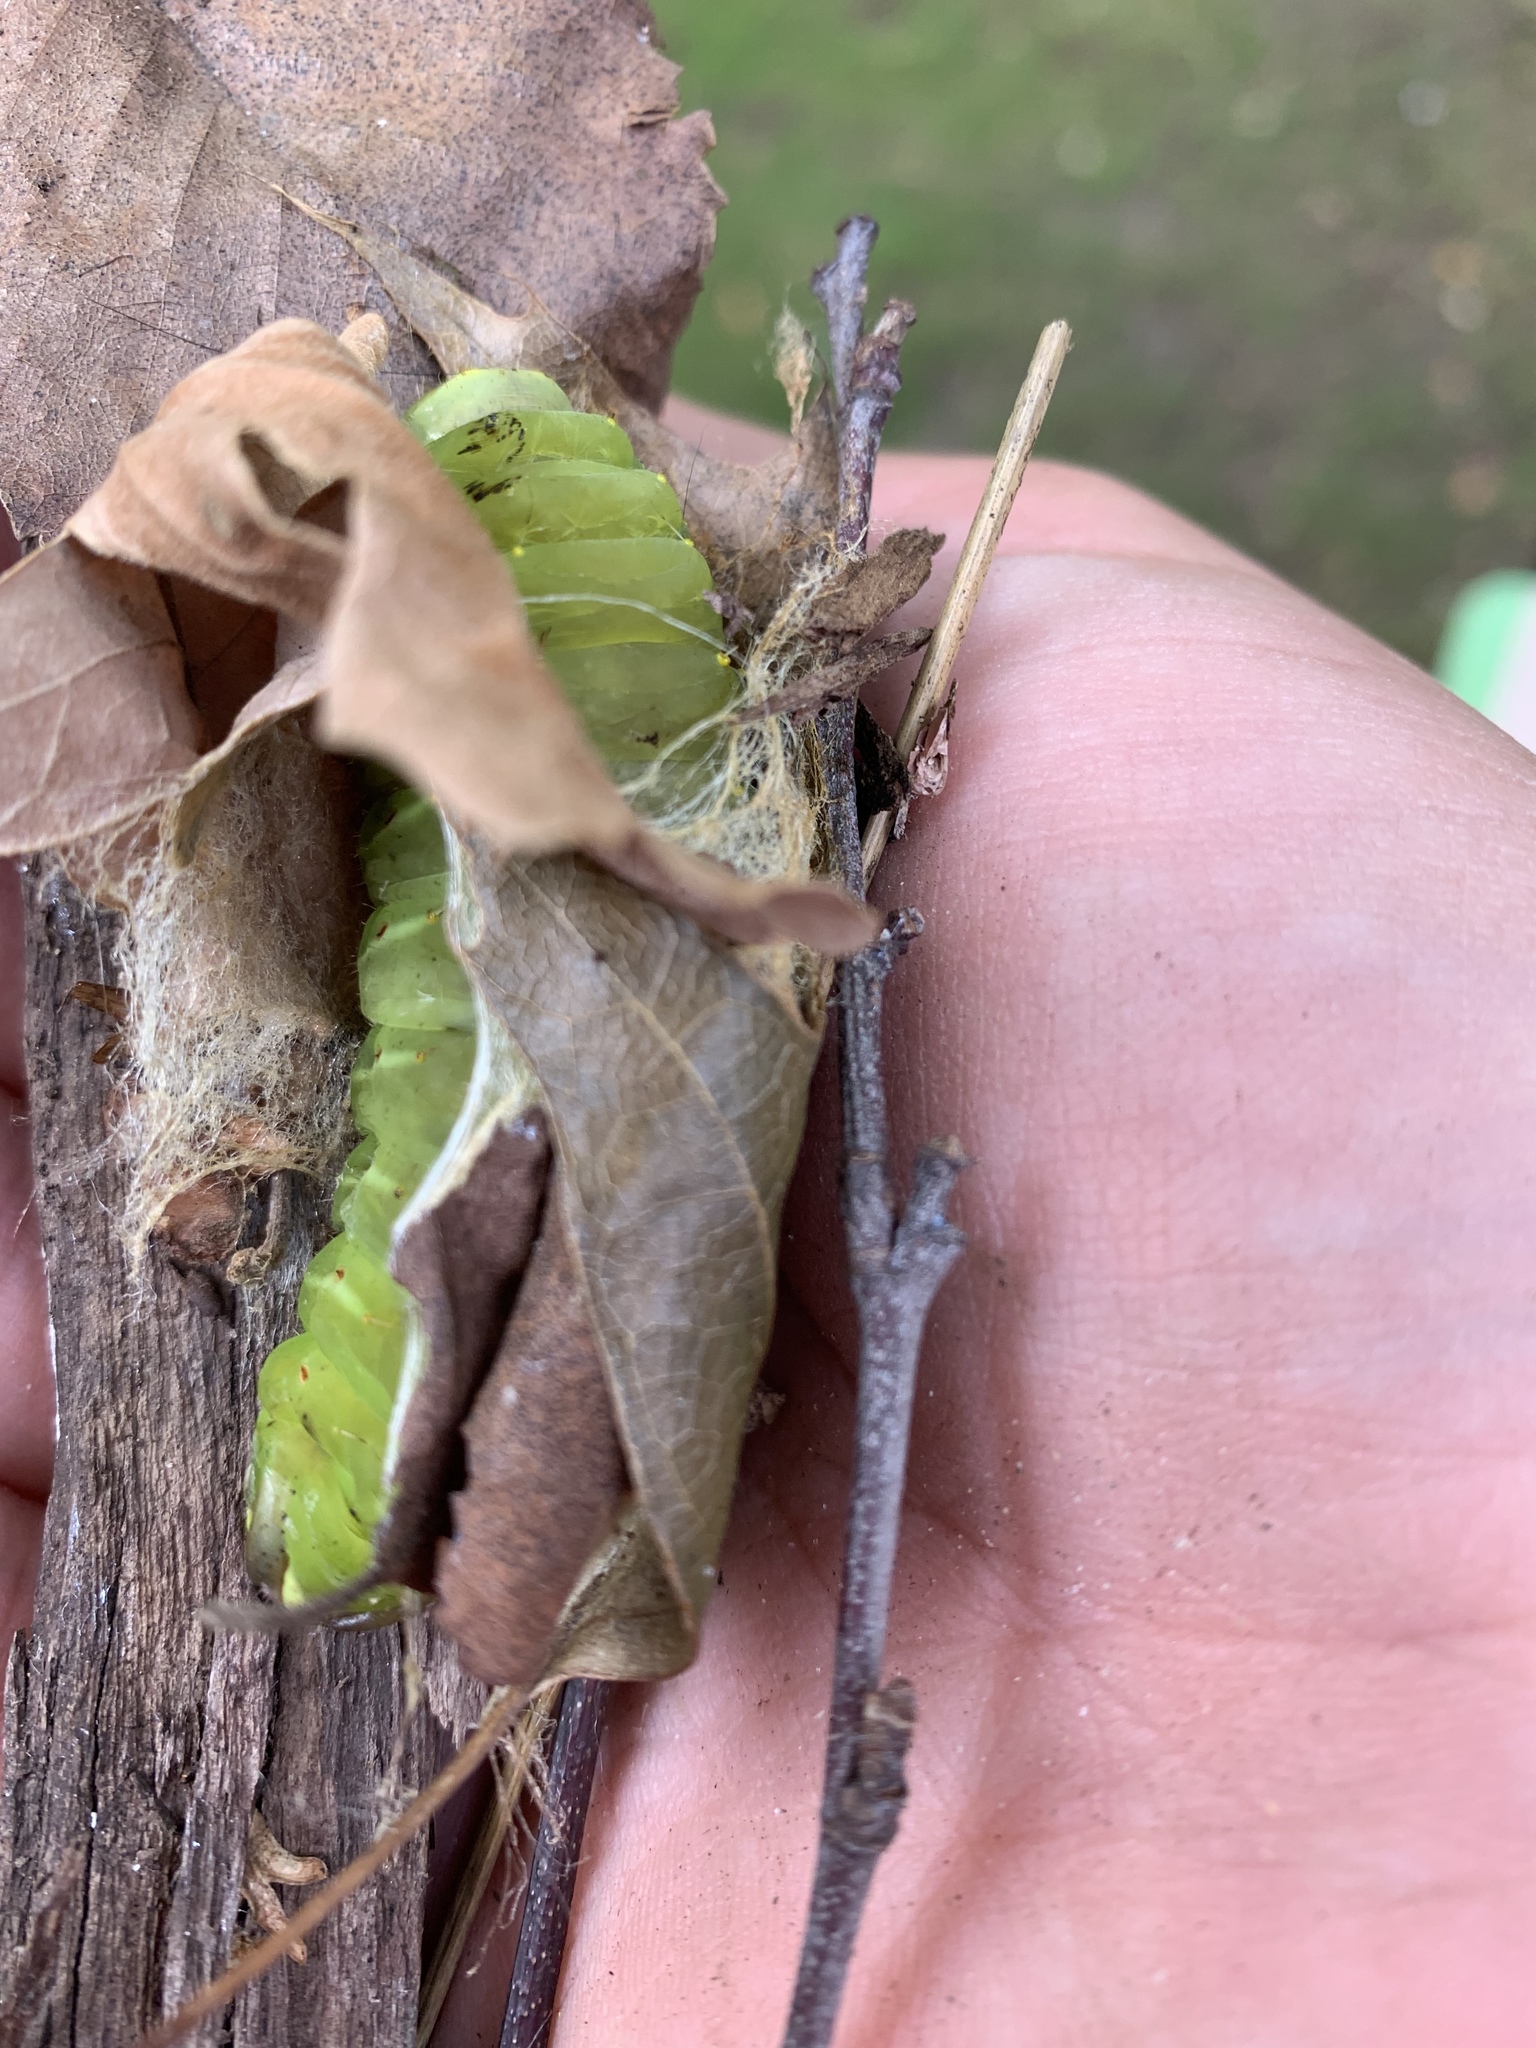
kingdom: Animalia
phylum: Arthropoda
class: Insecta
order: Lepidoptera
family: Saturniidae
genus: Antheraea
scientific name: Antheraea polyphemus
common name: Polyphemus moth
